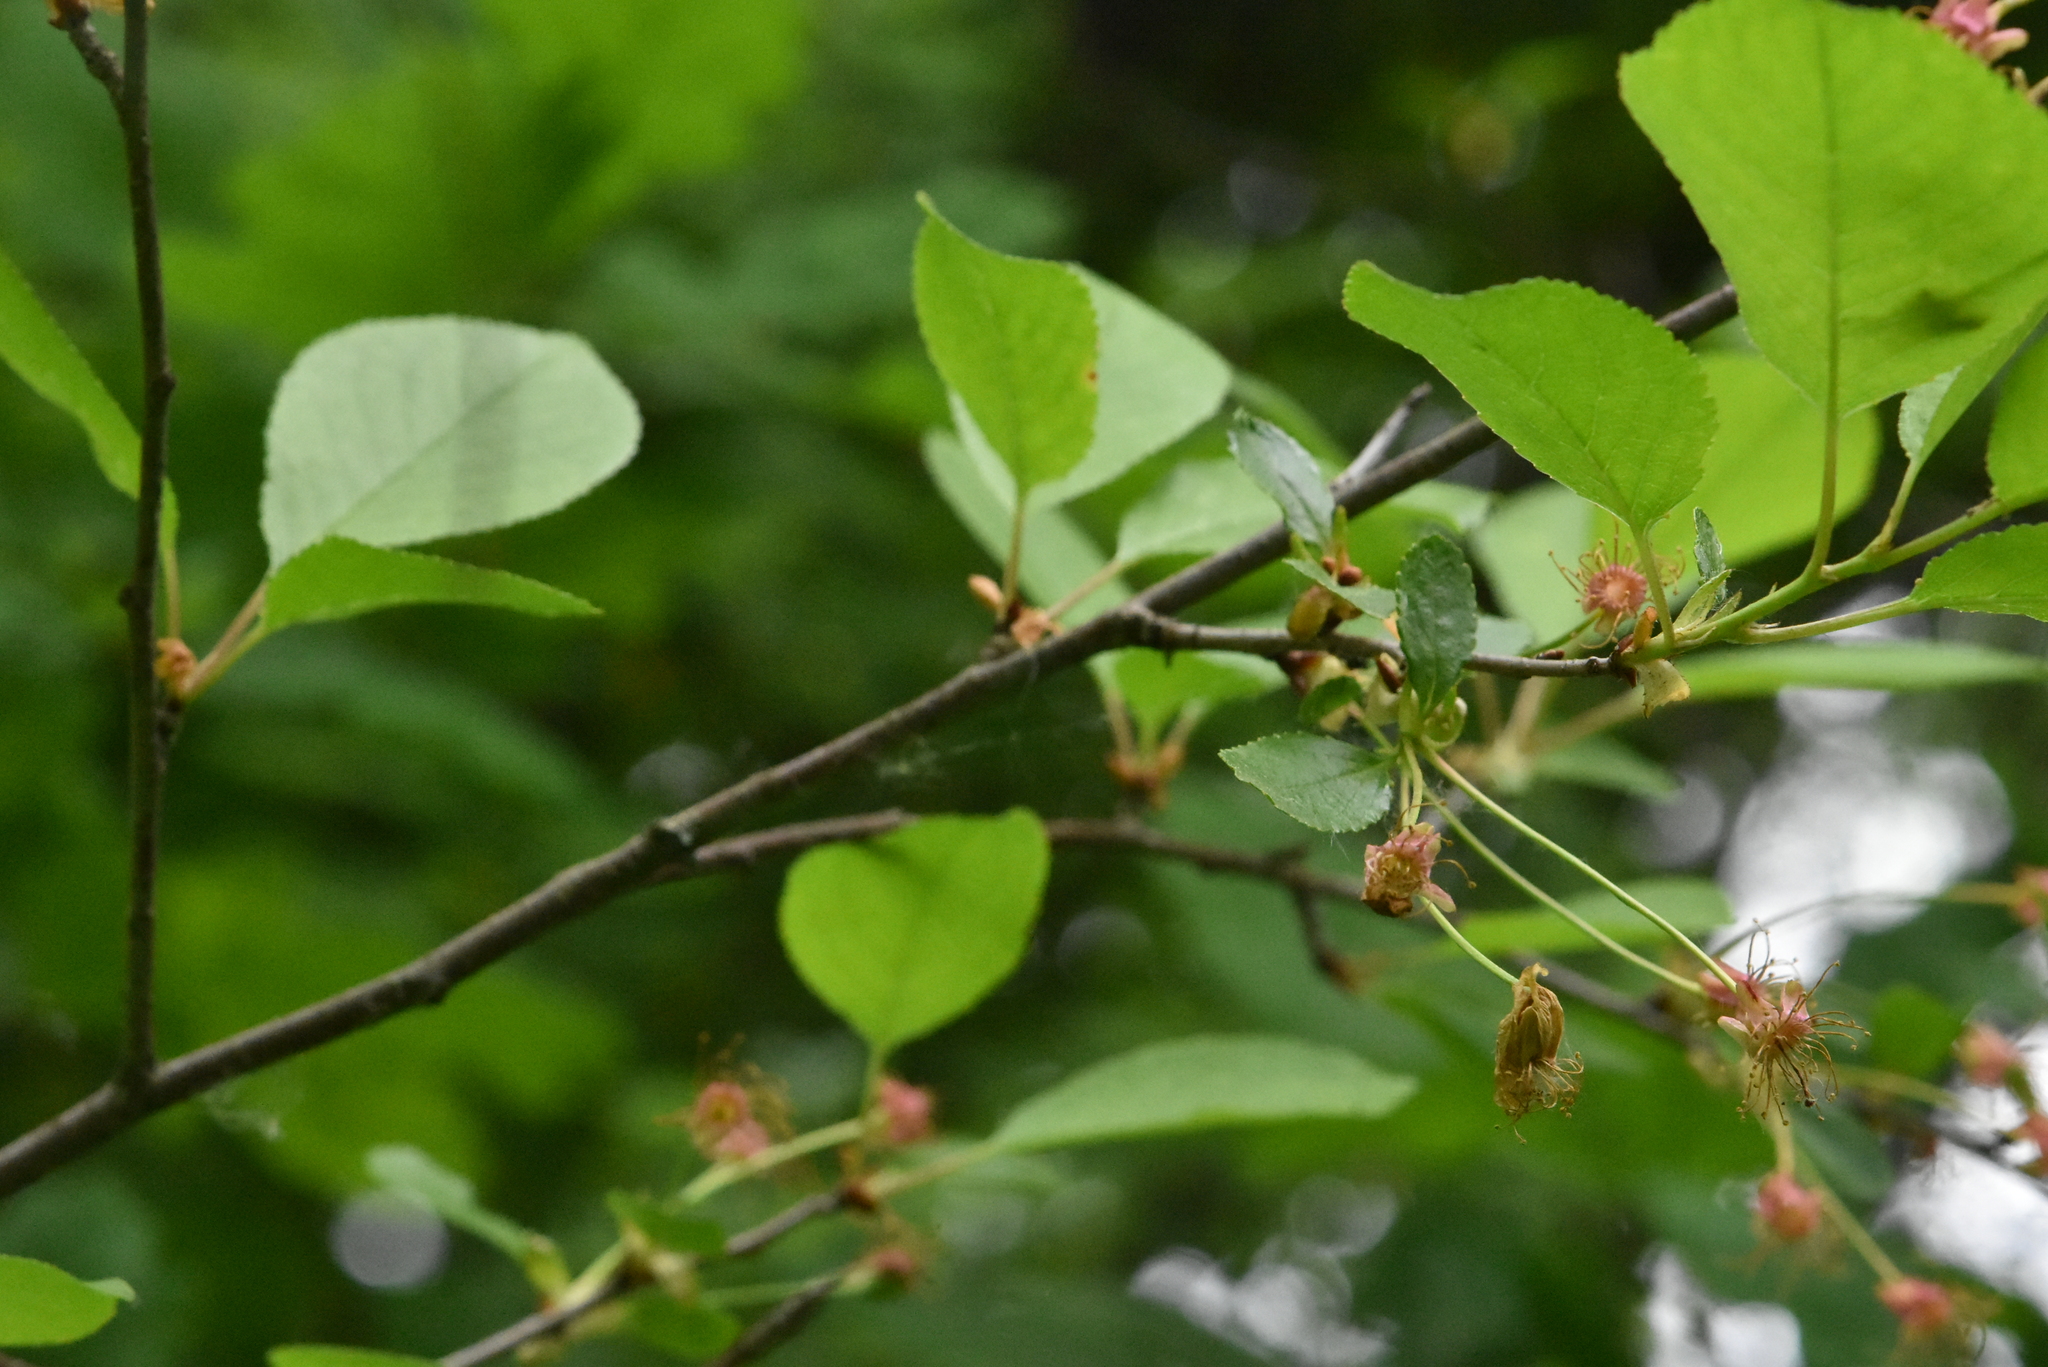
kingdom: Plantae
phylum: Tracheophyta
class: Magnoliopsida
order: Rosales
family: Rosaceae
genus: Prunus
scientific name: Prunus cerasus
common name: Morello cherry
